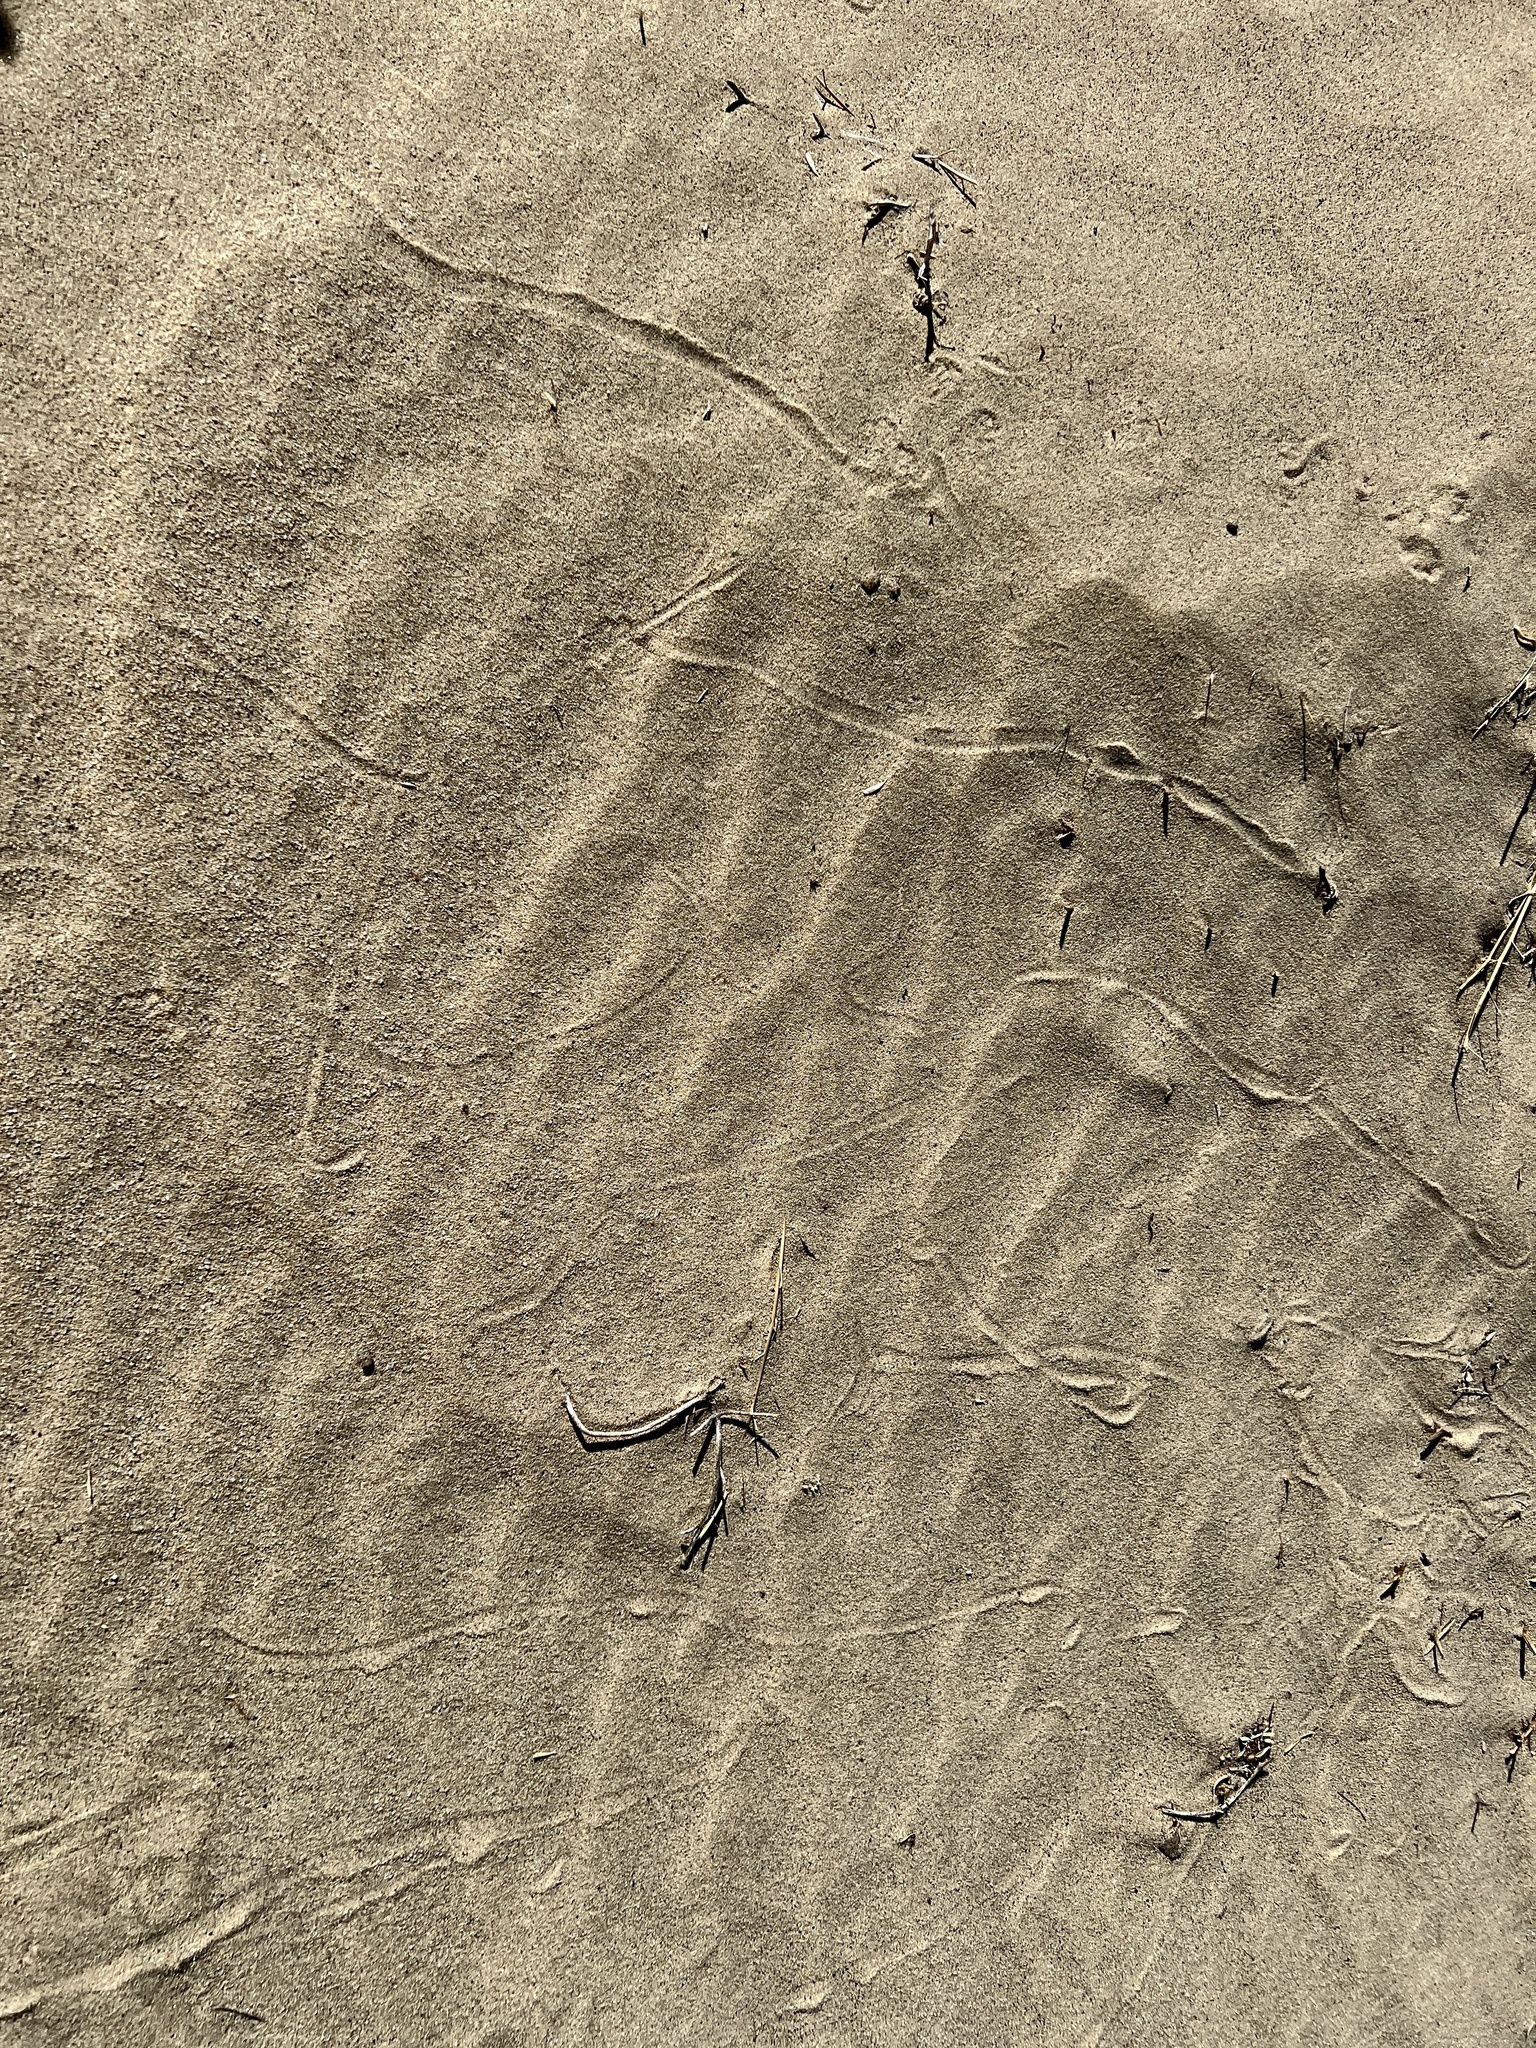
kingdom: Animalia
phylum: Chordata
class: Squamata
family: Viperidae
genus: Crotalus
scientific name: Crotalus cerastes
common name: Sidewinder
